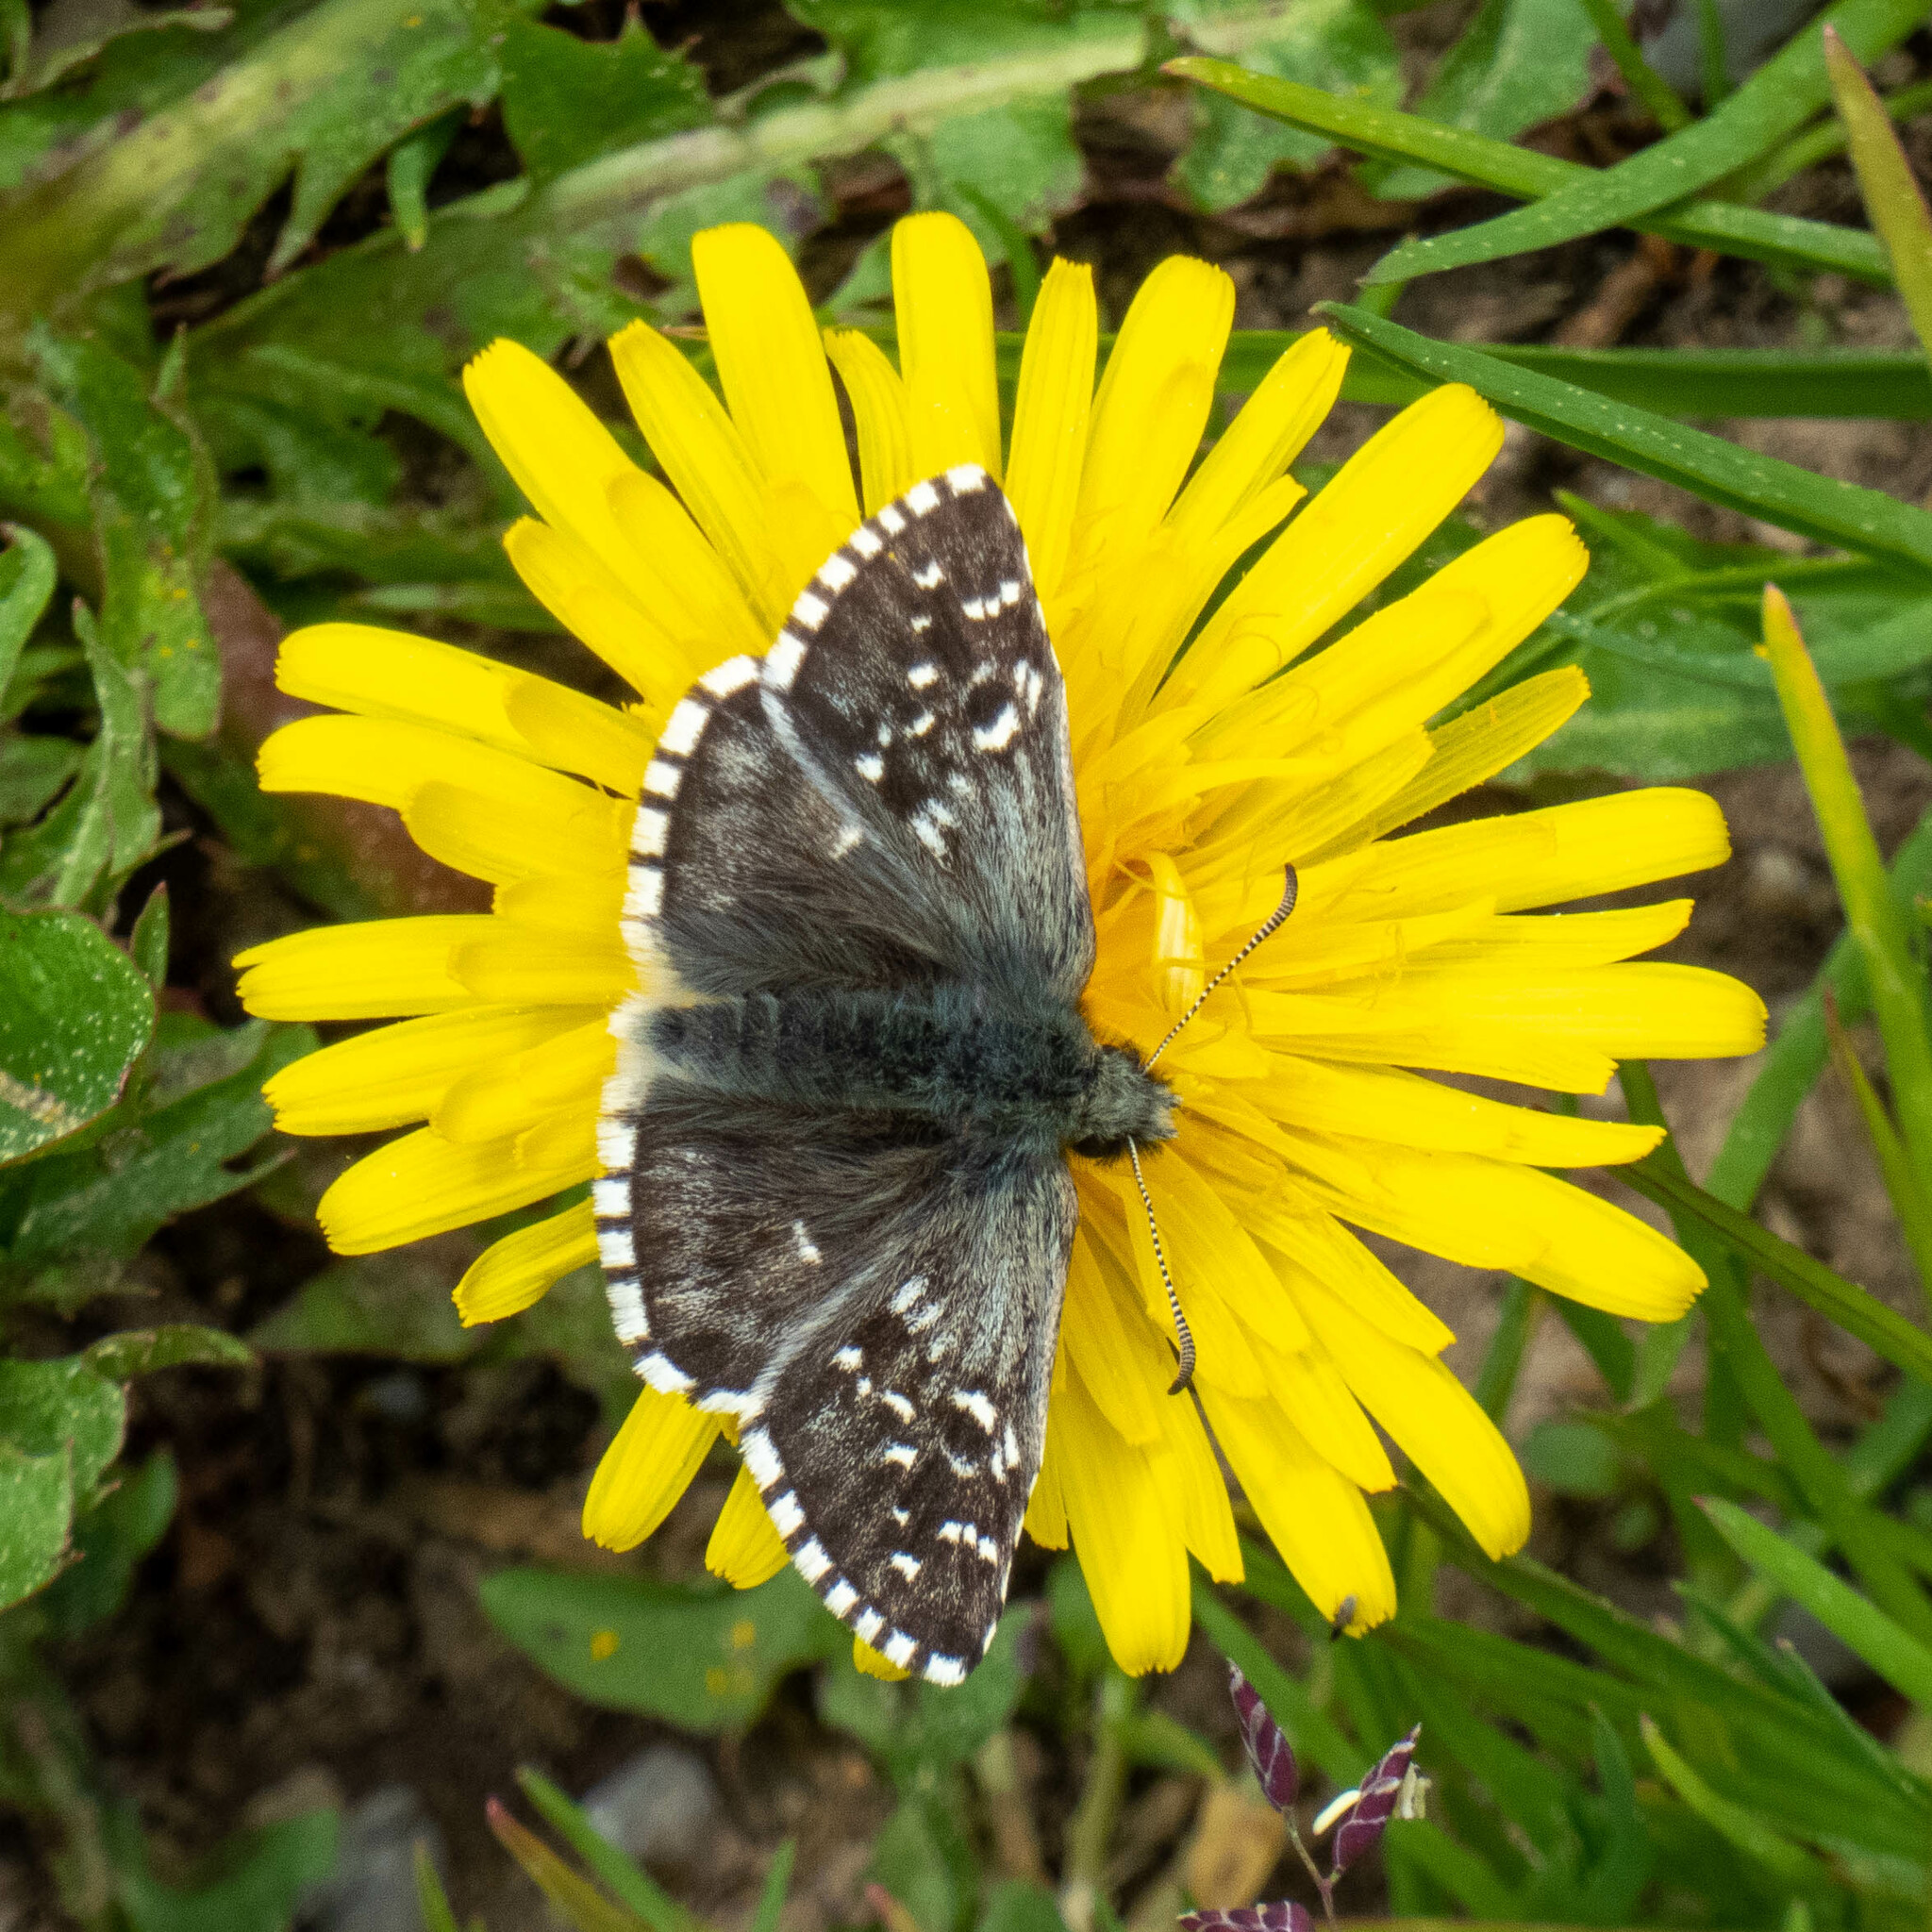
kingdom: Animalia
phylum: Arthropoda
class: Insecta
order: Lepidoptera
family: Hesperiidae
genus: Pyrgus
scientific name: Pyrgus andromedae
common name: Alpine grizzled skipper
